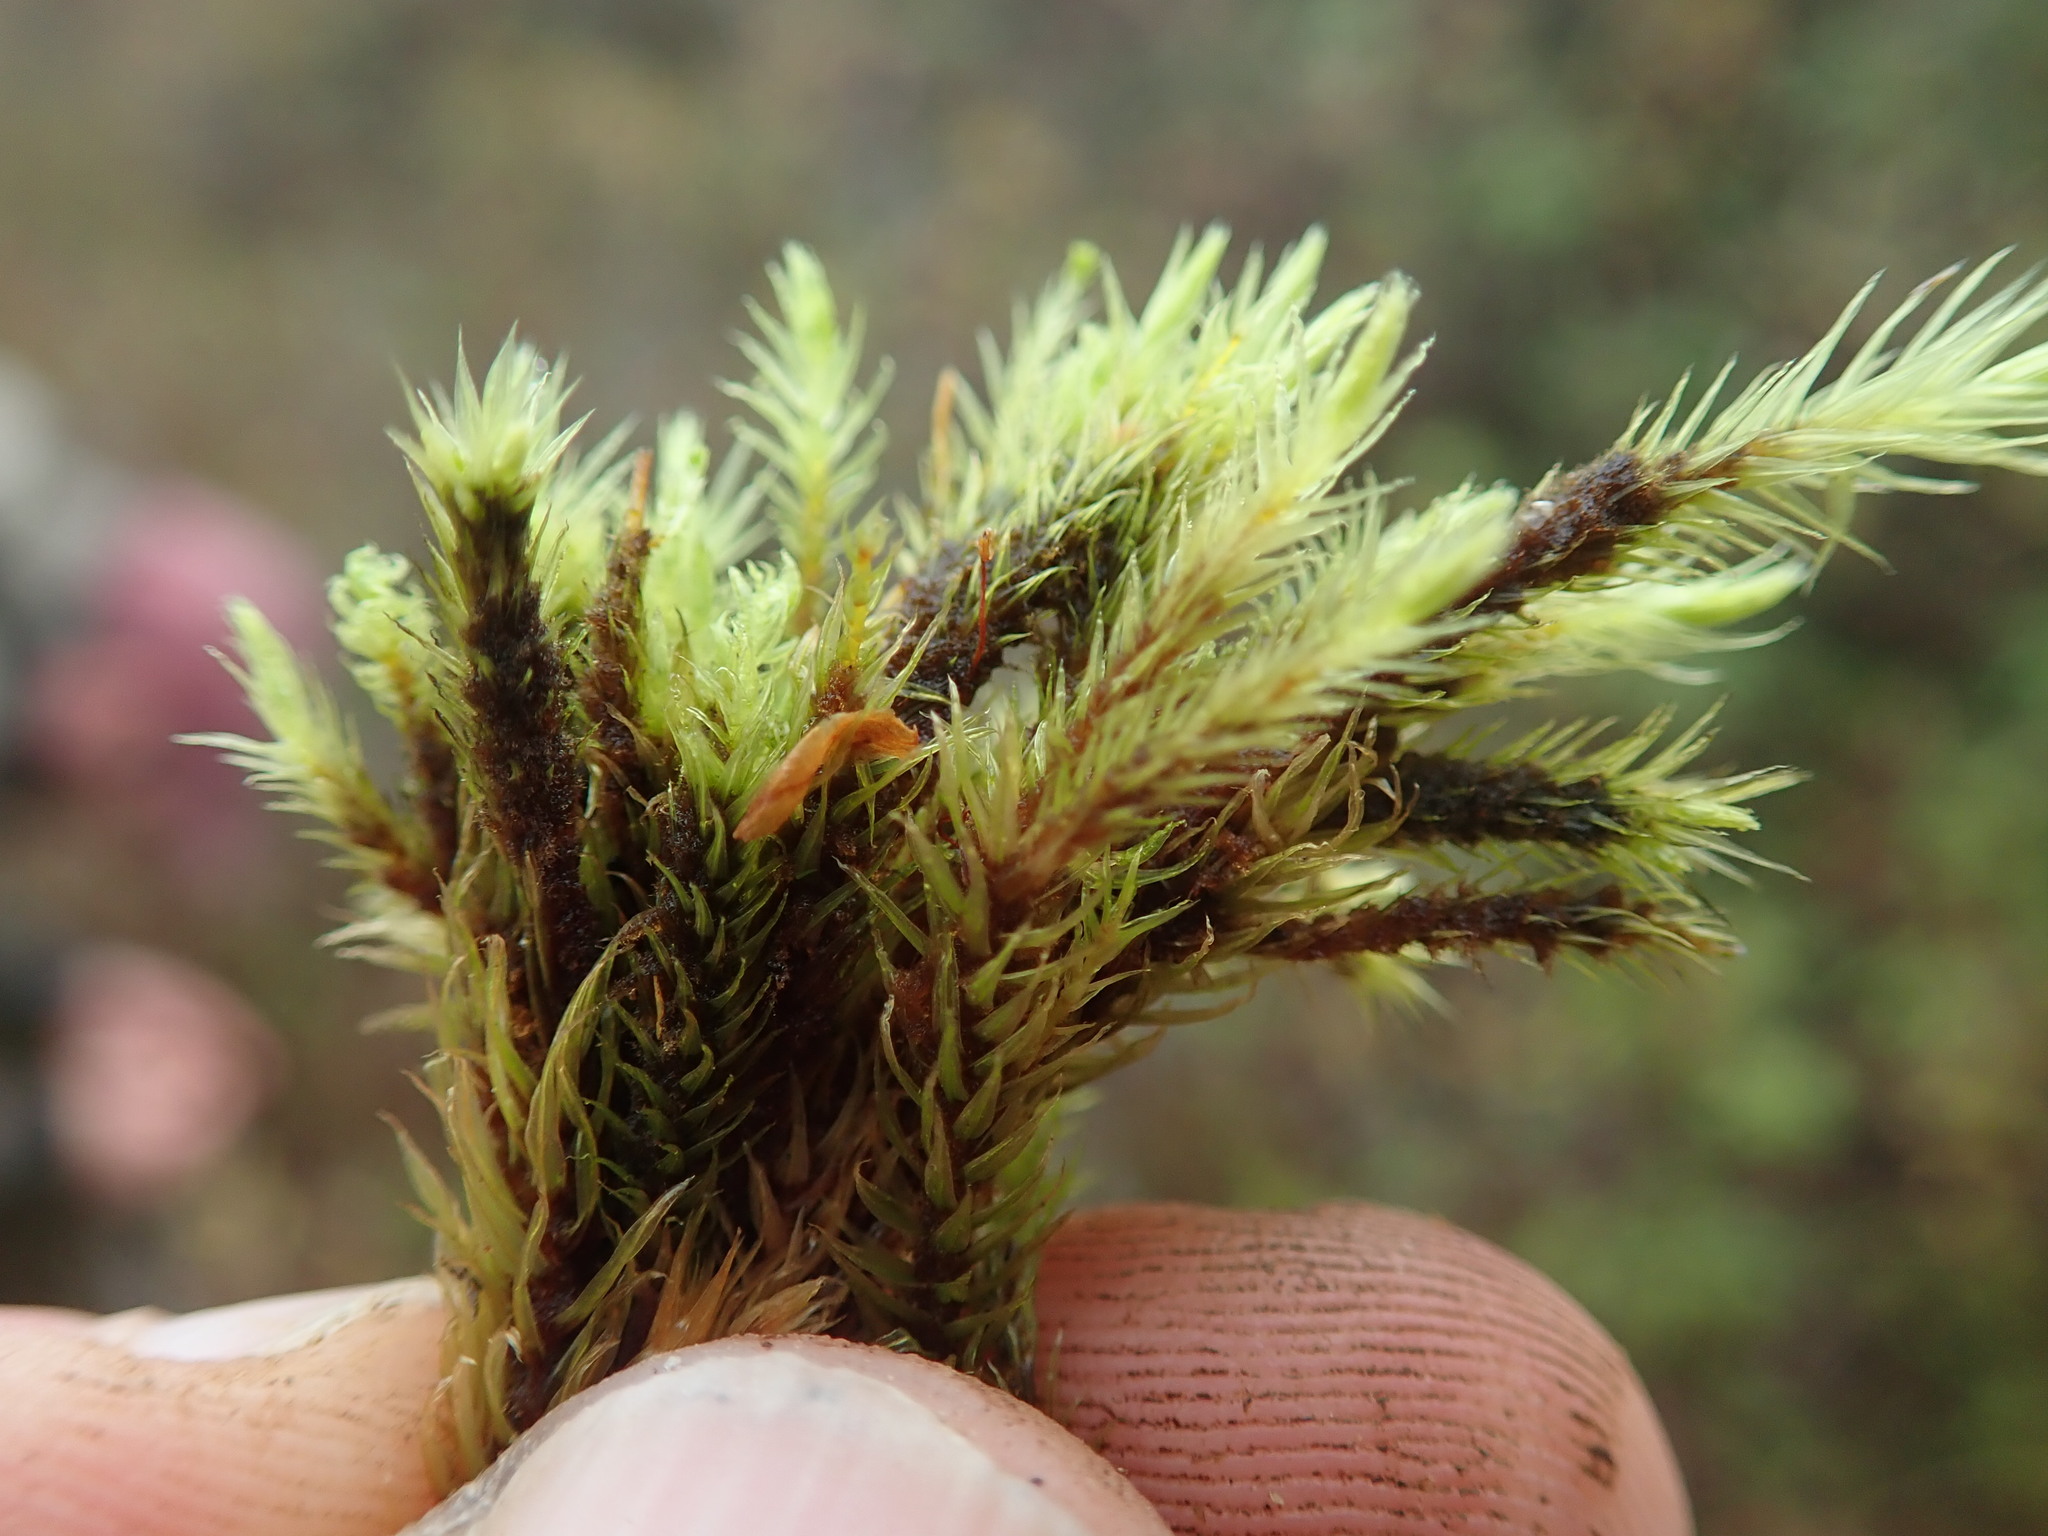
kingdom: Plantae
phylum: Bryophyta
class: Bryopsida
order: Aulacomniales
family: Aulacomniaceae
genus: Aulacomnium
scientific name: Aulacomnium palustre
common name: Bog groove-moss
